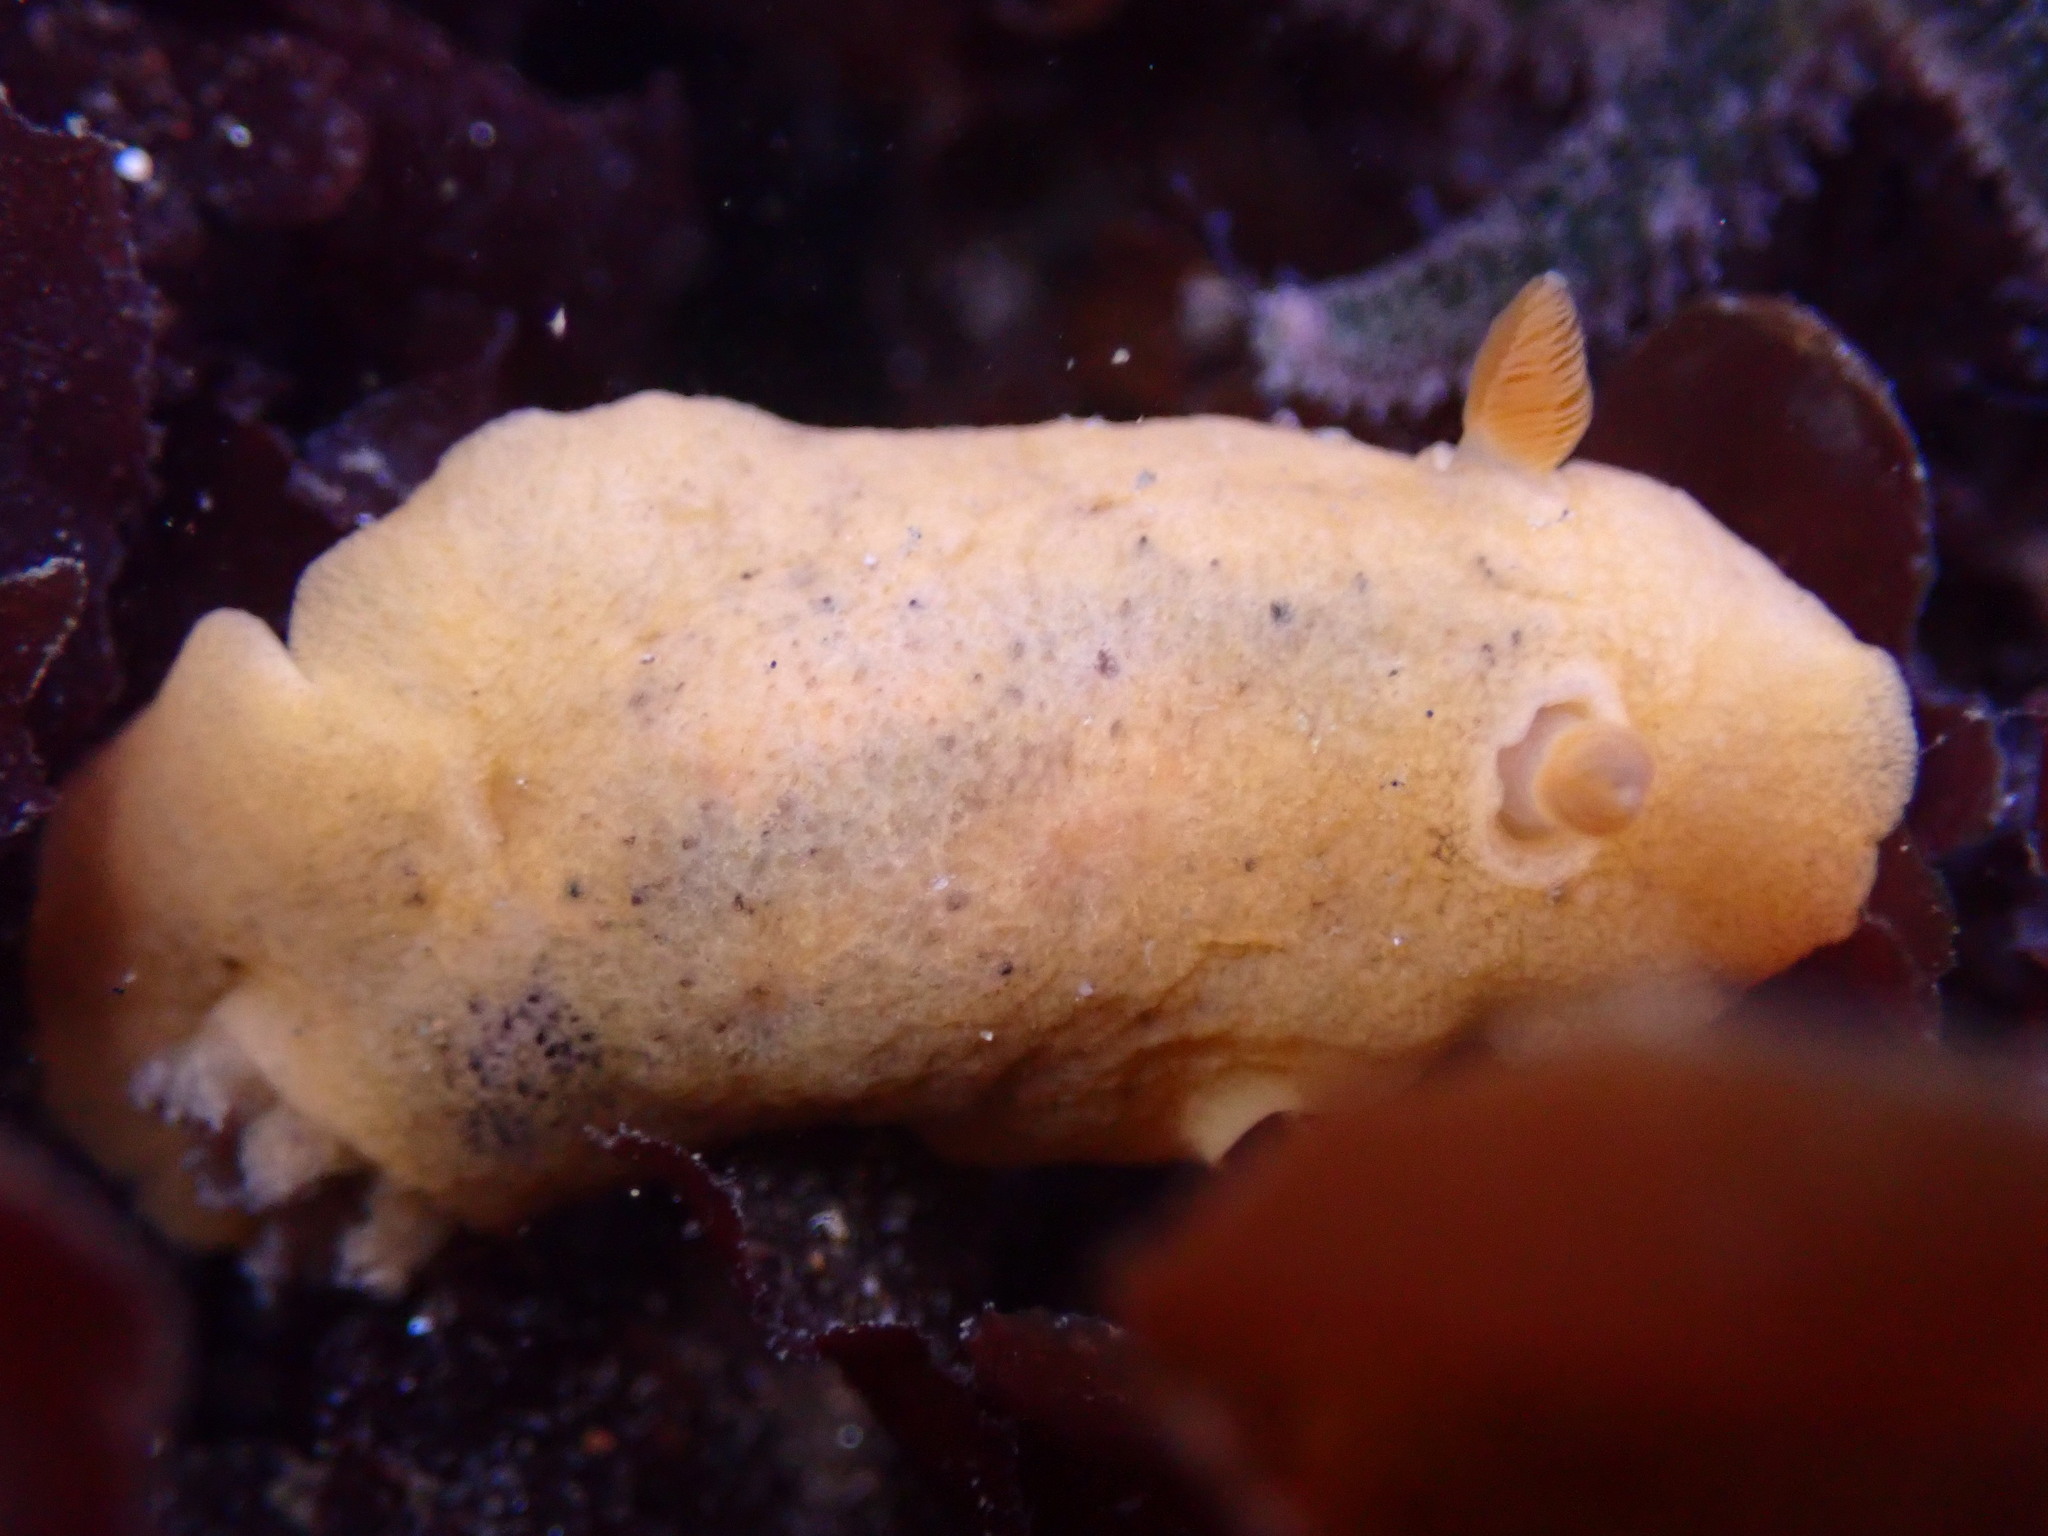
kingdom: Animalia
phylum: Mollusca
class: Gastropoda
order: Nudibranchia
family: Discodorididae
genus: Geitodoris
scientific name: Geitodoris heathi
